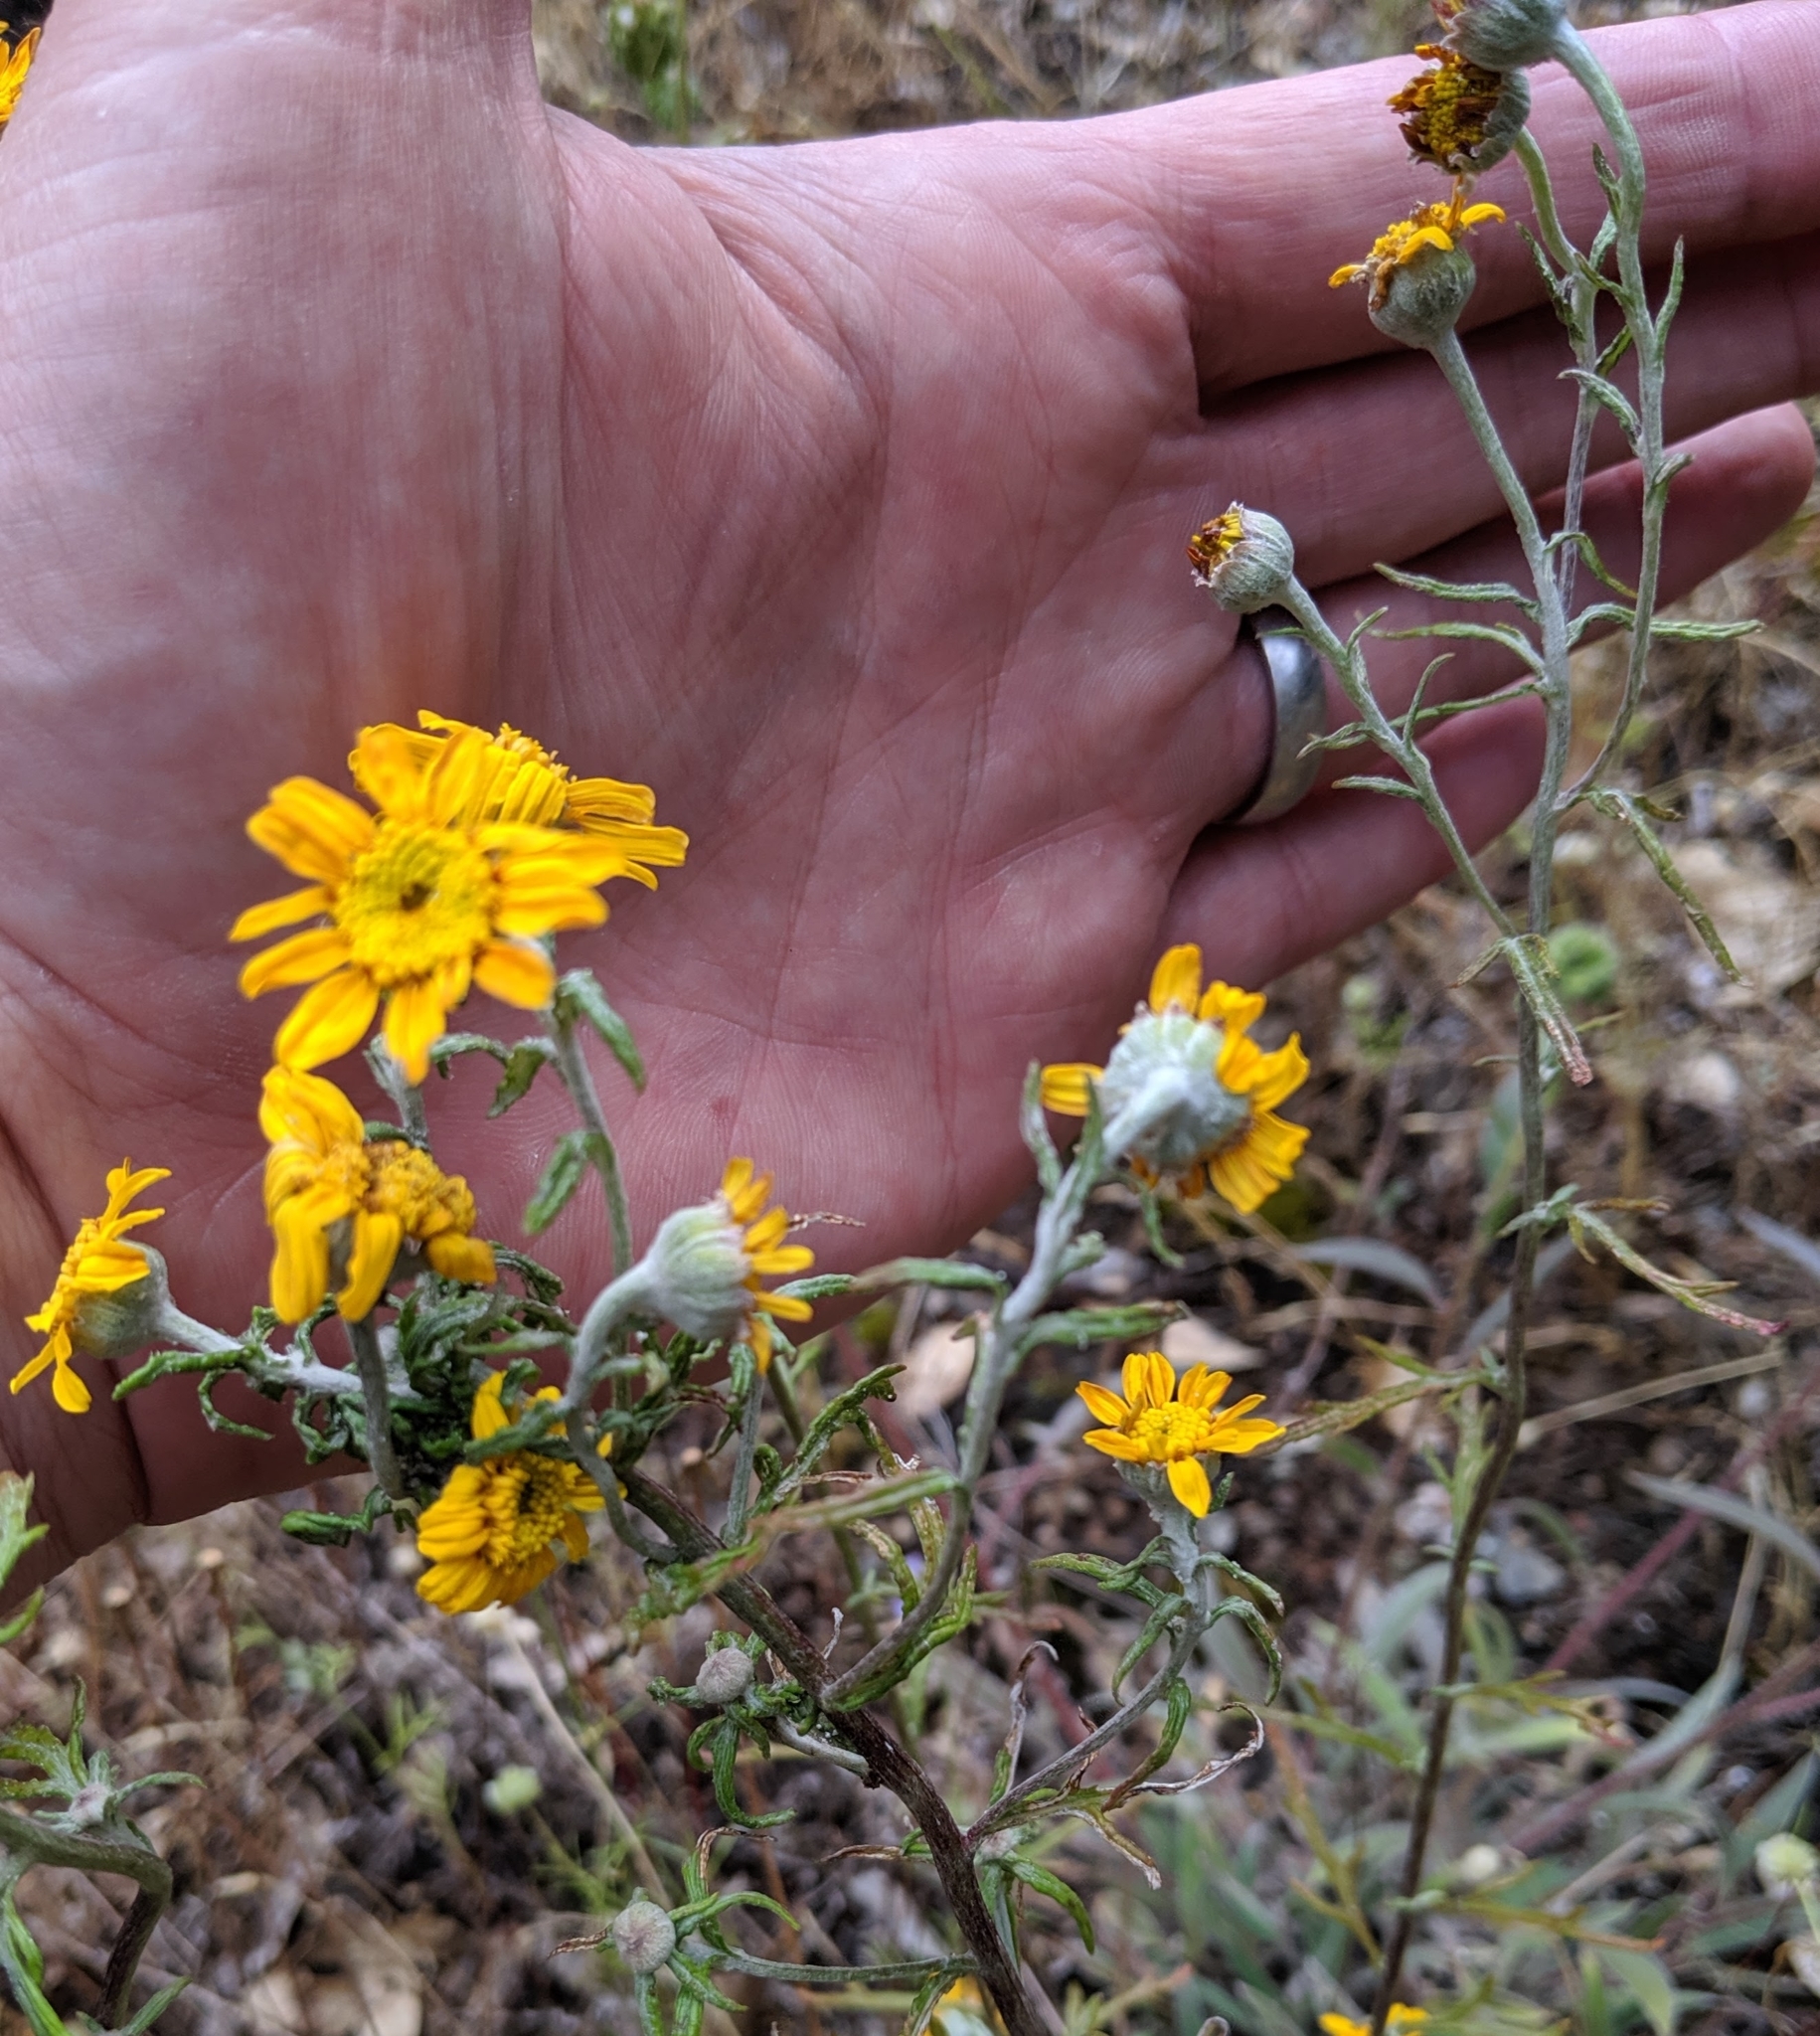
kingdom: Plantae
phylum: Tracheophyta
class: Magnoliopsida
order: Asterales
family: Asteraceae
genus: Eriophyllum
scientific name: Eriophyllum lanatum
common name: Common woolly-sunflower
